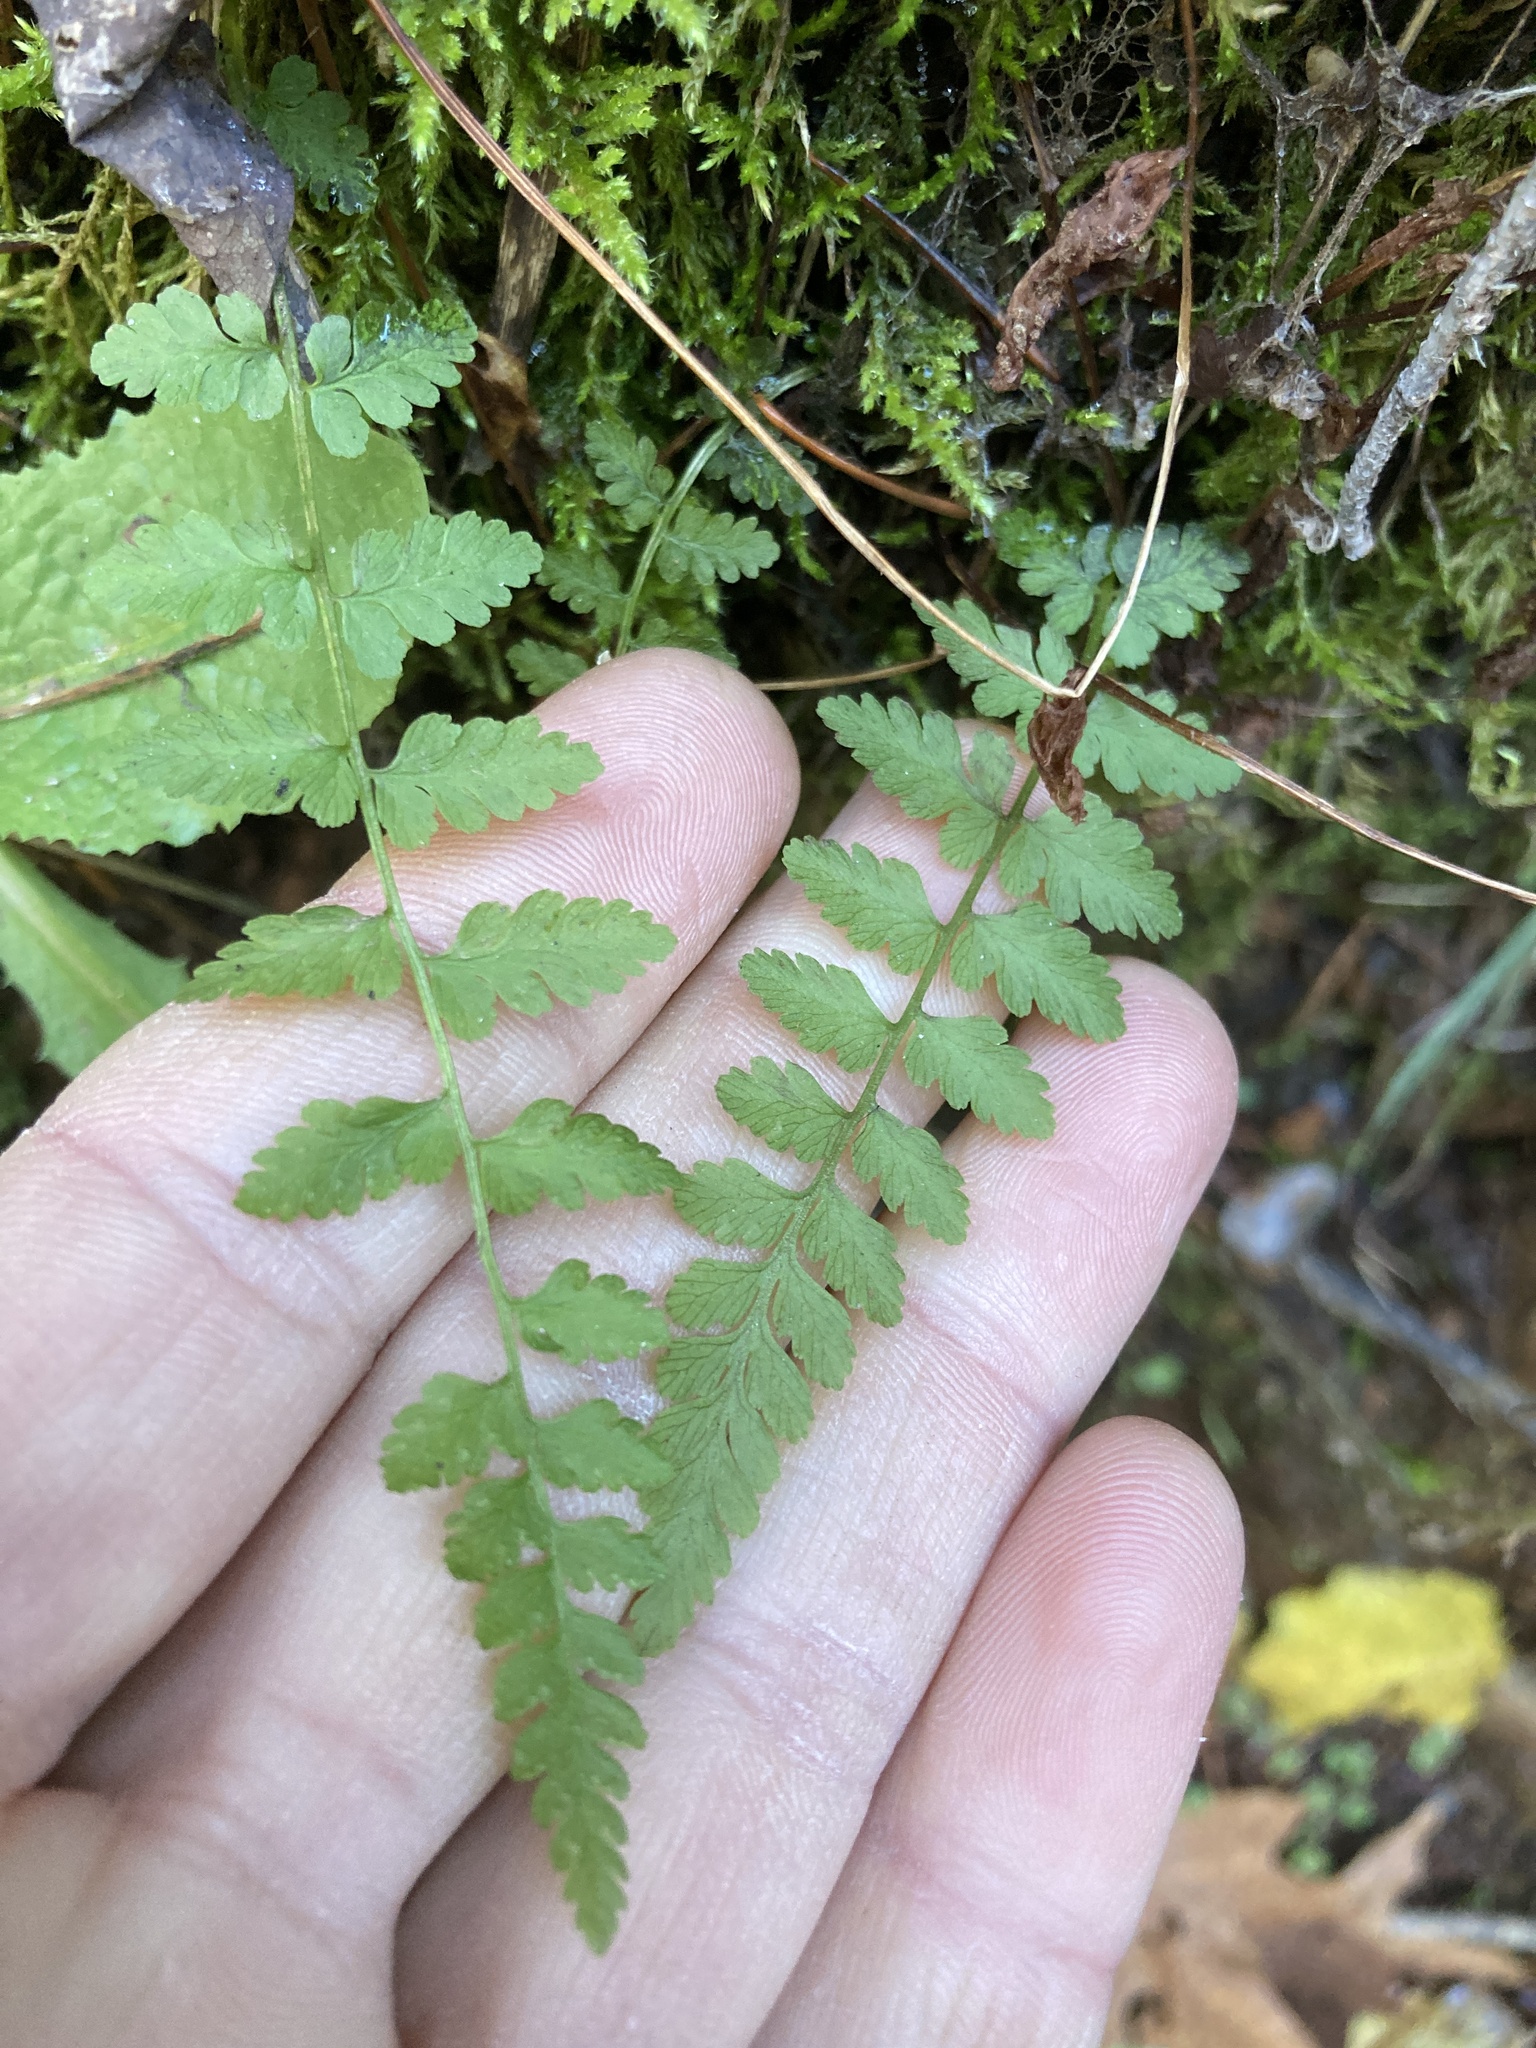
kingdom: Plantae
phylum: Tracheophyta
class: Polypodiopsida
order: Polypodiales
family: Cystopteridaceae
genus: Cystopteris
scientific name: Cystopteris fragilis
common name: Brittle bladder fern
